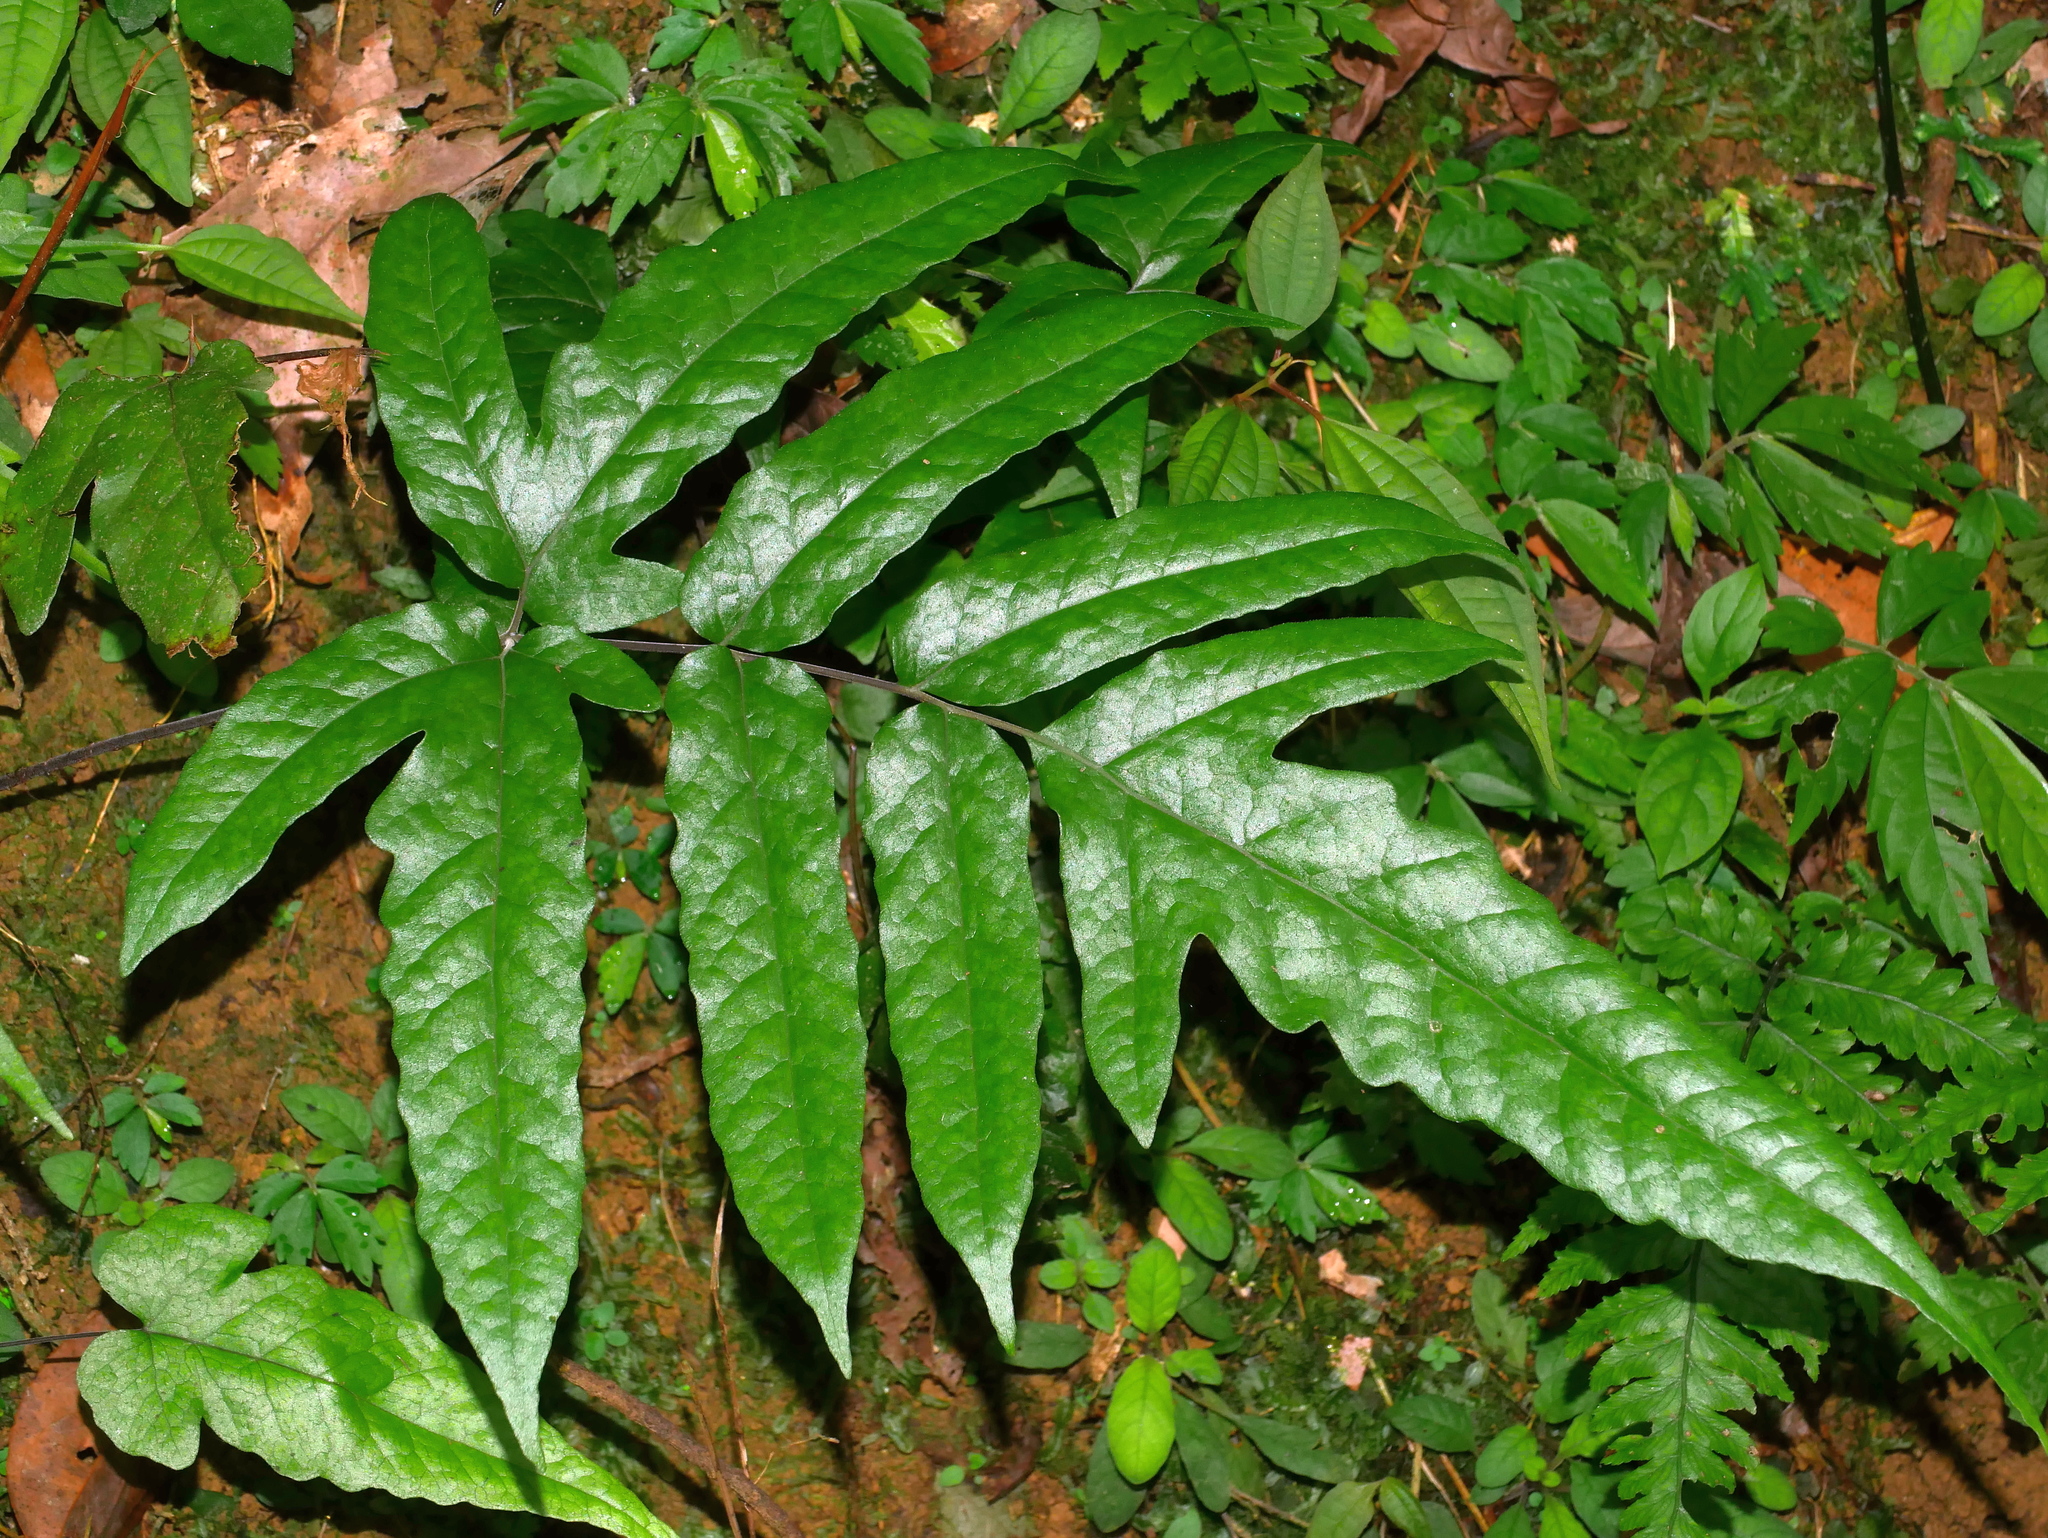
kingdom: Plantae
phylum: Tracheophyta
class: Polypodiopsida
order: Polypodiales
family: Tectariaceae
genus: Tectaria
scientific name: Tectaria simonsii
